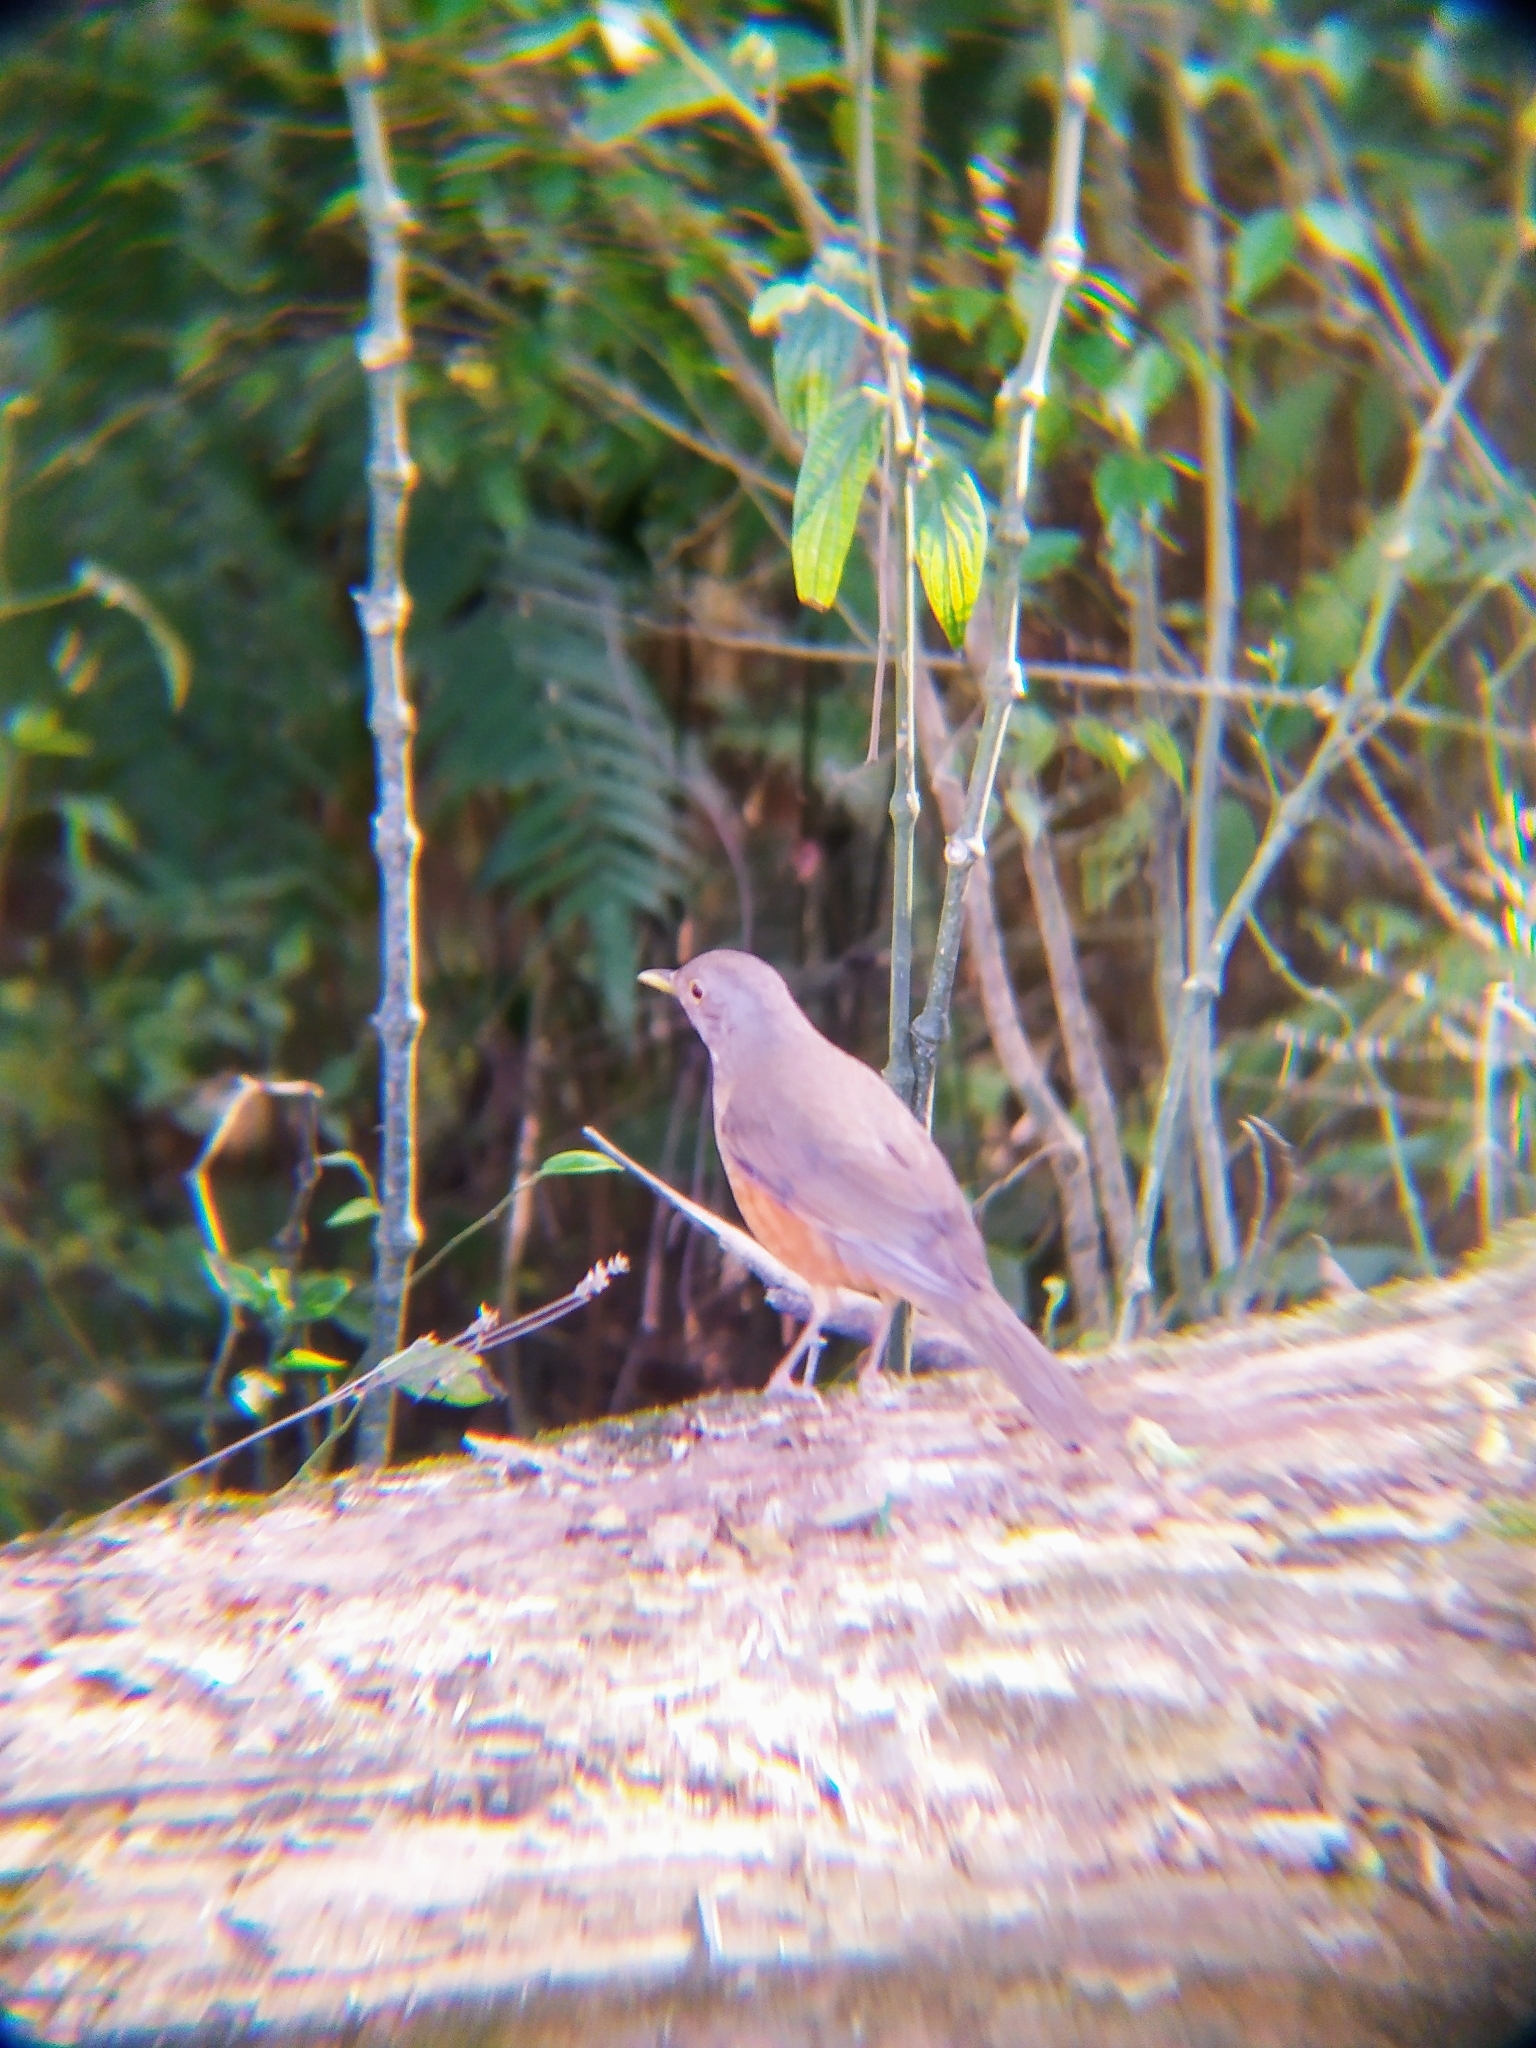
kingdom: Animalia
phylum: Chordata
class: Aves
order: Passeriformes
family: Turdidae
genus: Turdus
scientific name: Turdus rufiventris
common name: Rufous-bellied thrush
